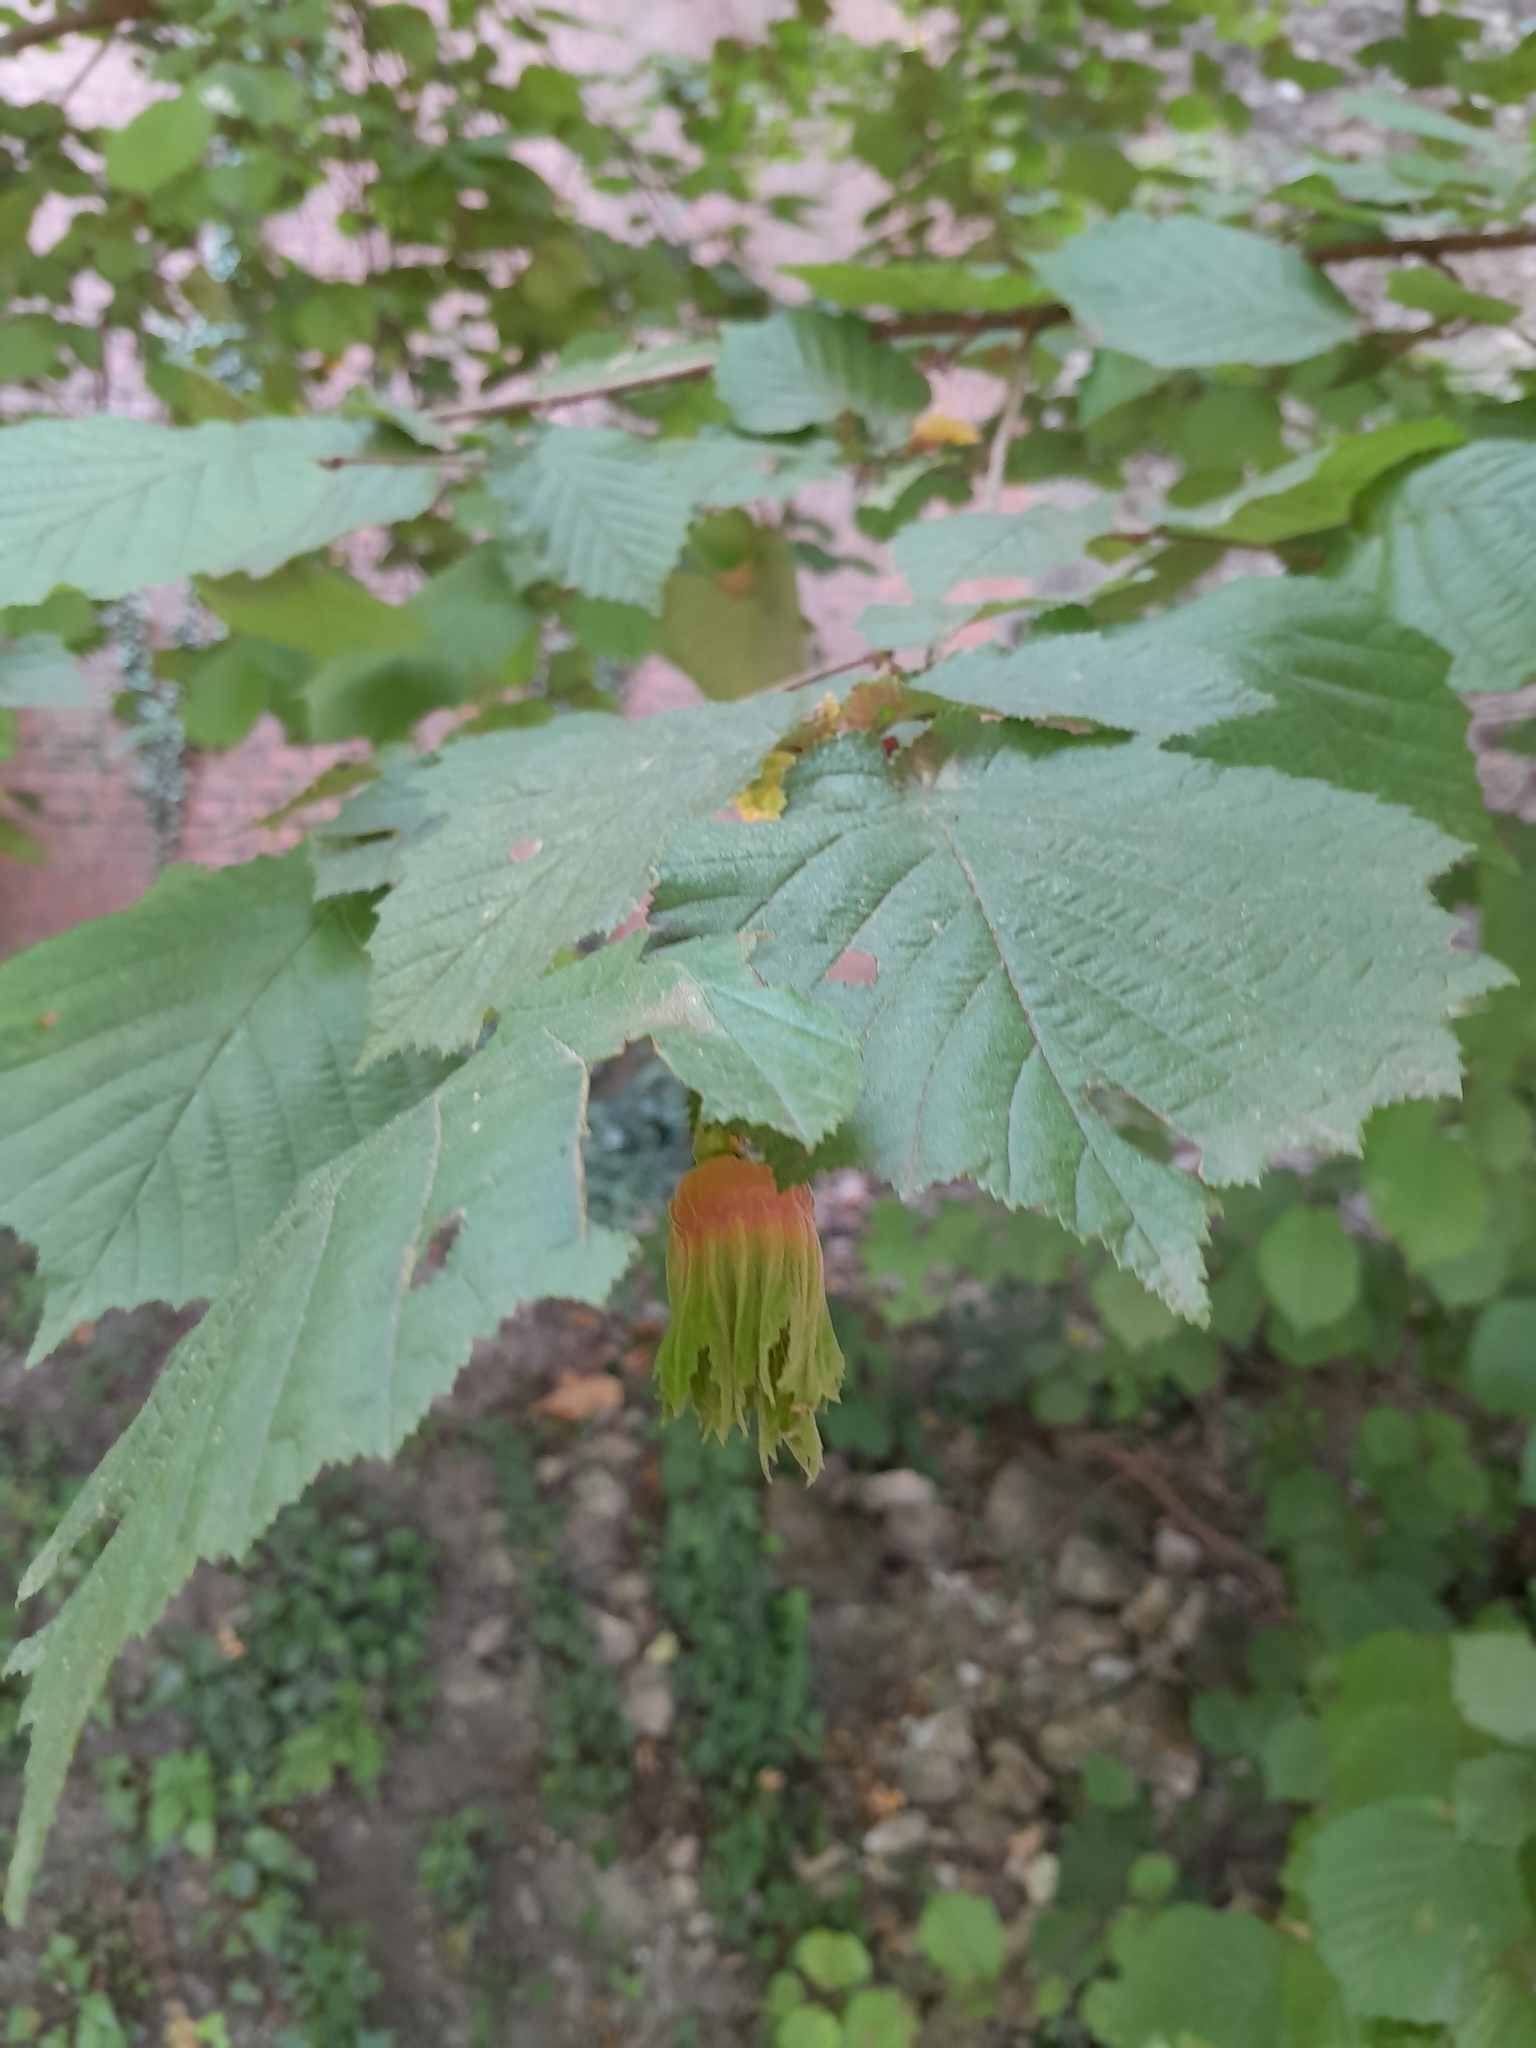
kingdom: Plantae
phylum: Tracheophyta
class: Magnoliopsida
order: Fagales
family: Betulaceae
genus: Corylus
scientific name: Corylus avellana
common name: European hazel
